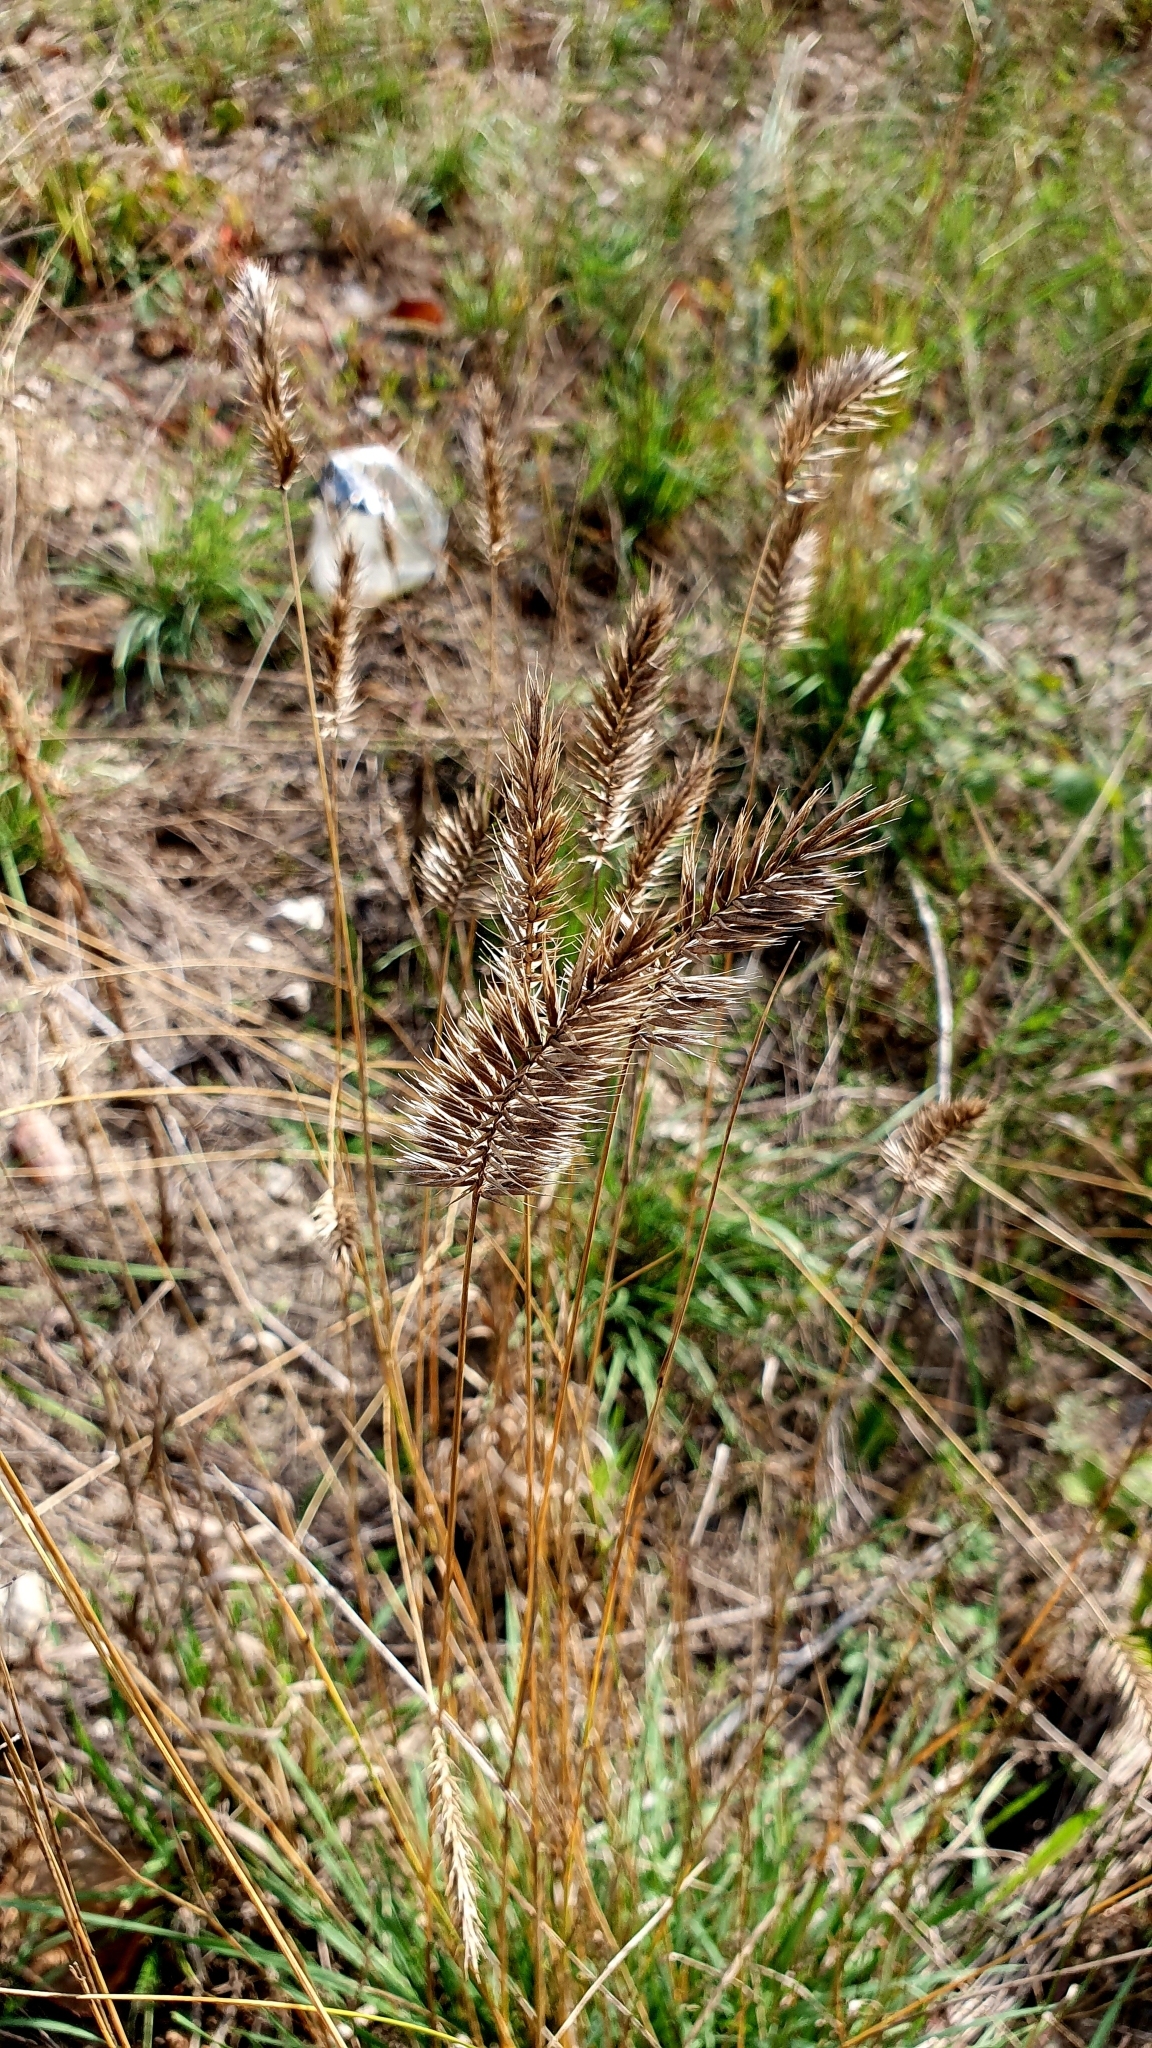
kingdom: Plantae
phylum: Tracheophyta
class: Liliopsida
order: Poales
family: Poaceae
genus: Agropyron
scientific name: Agropyron cristatum
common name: Crested wheatgrass
